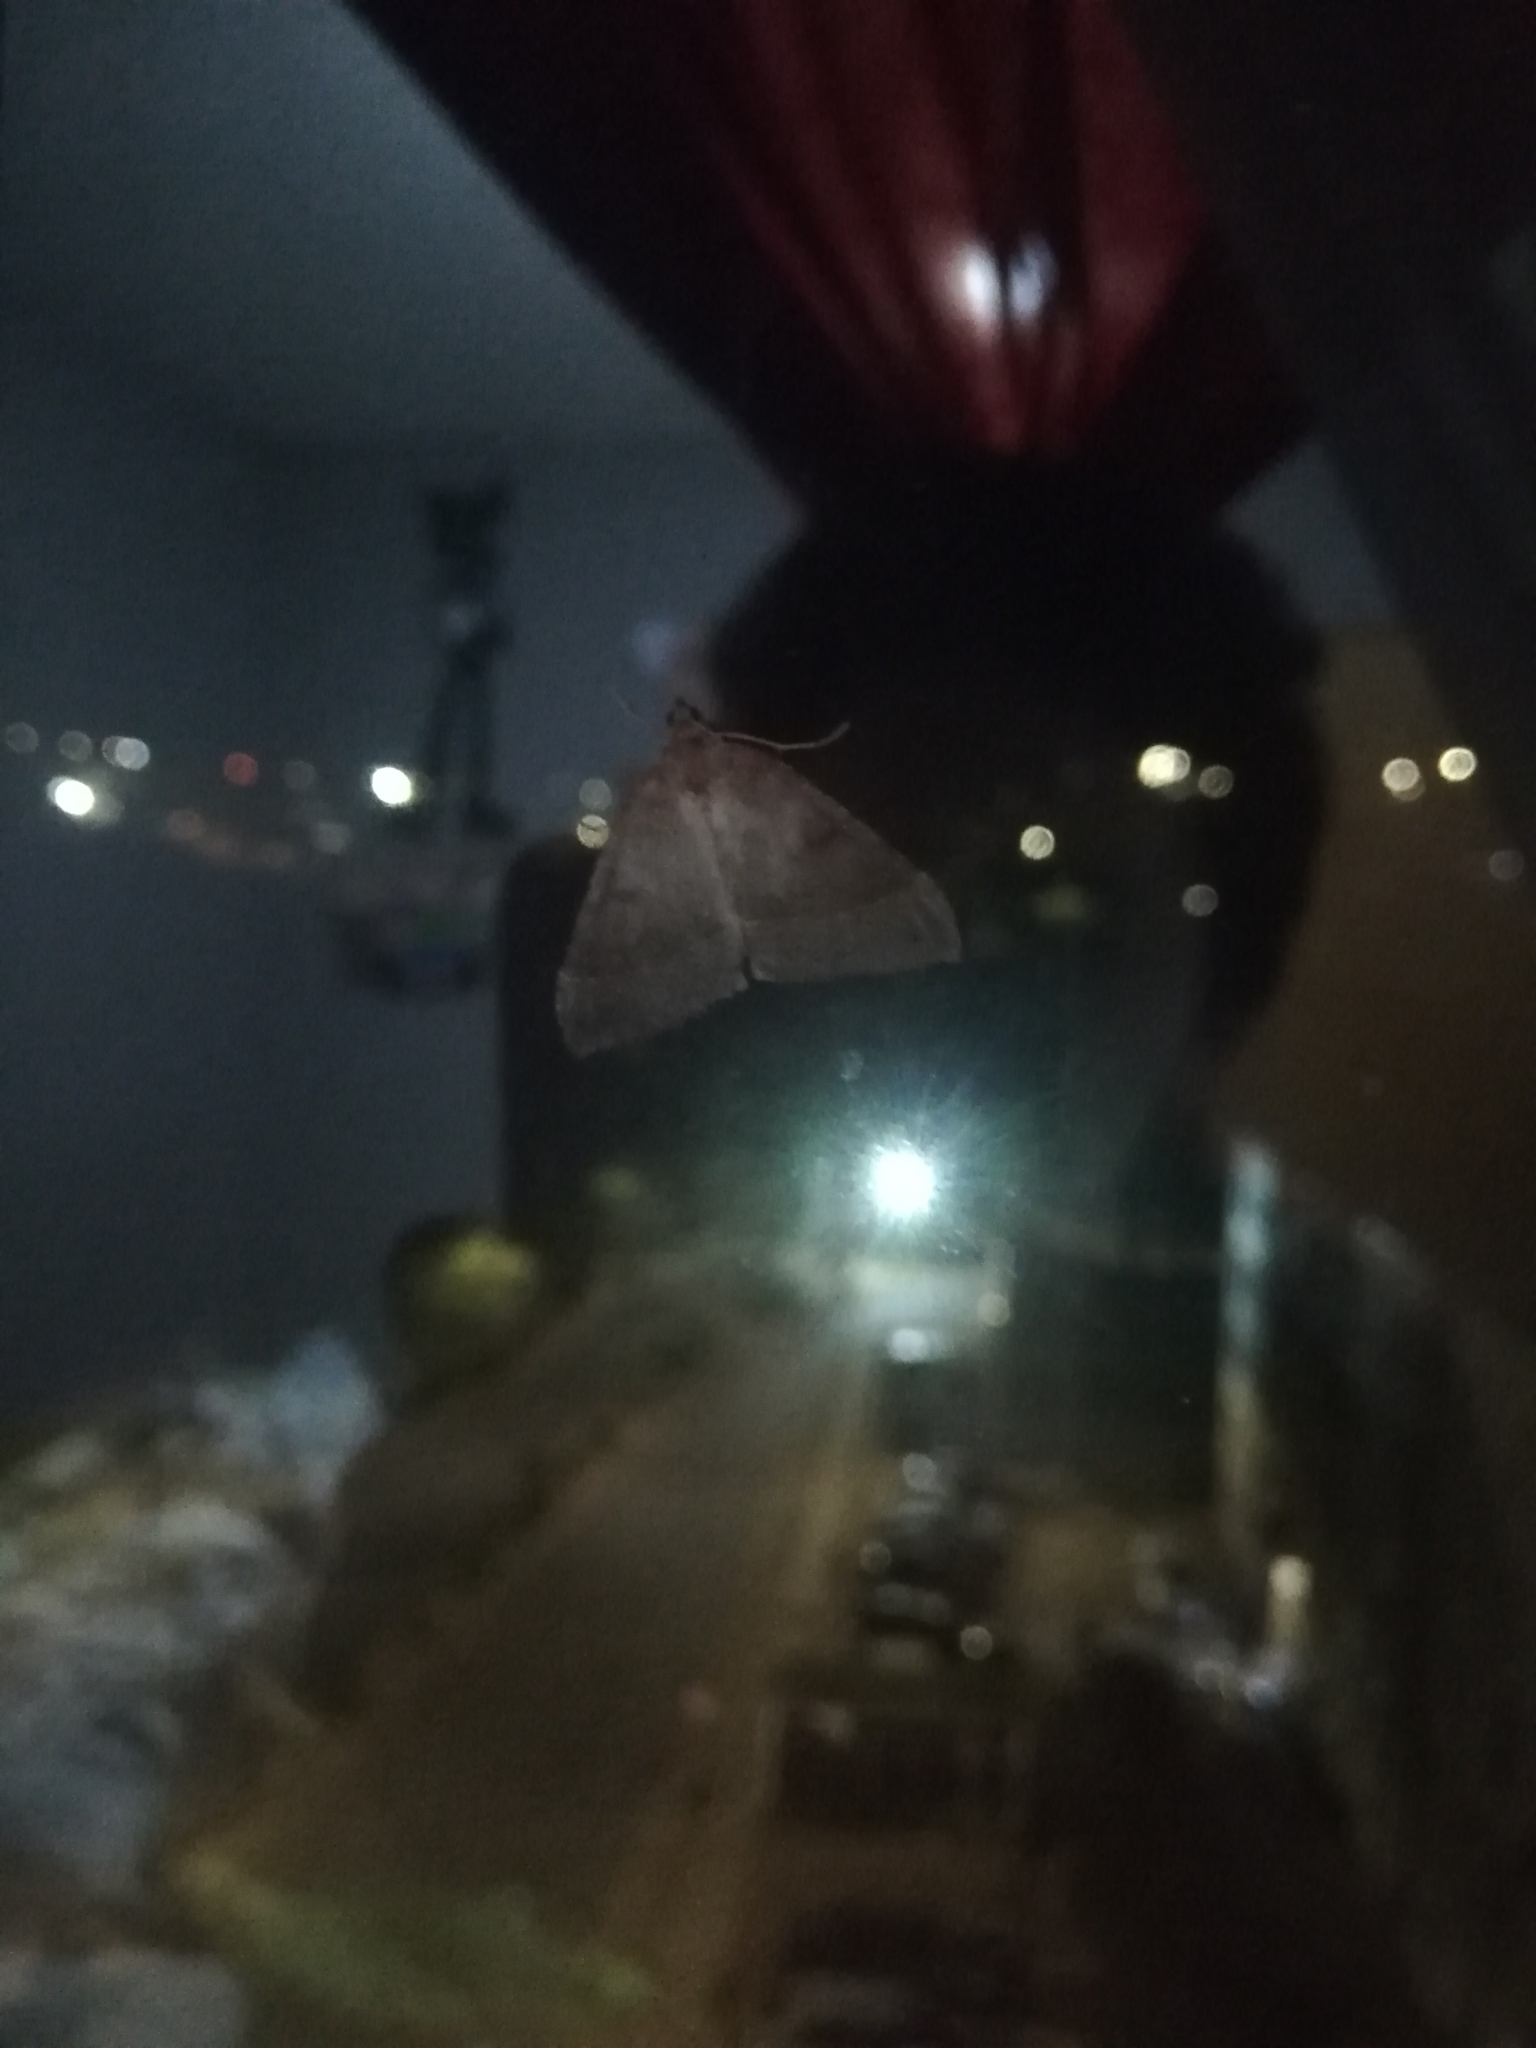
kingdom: Animalia
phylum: Arthropoda
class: Insecta
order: Lepidoptera
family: Geometridae
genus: Ennada
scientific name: Ennada flavaria
